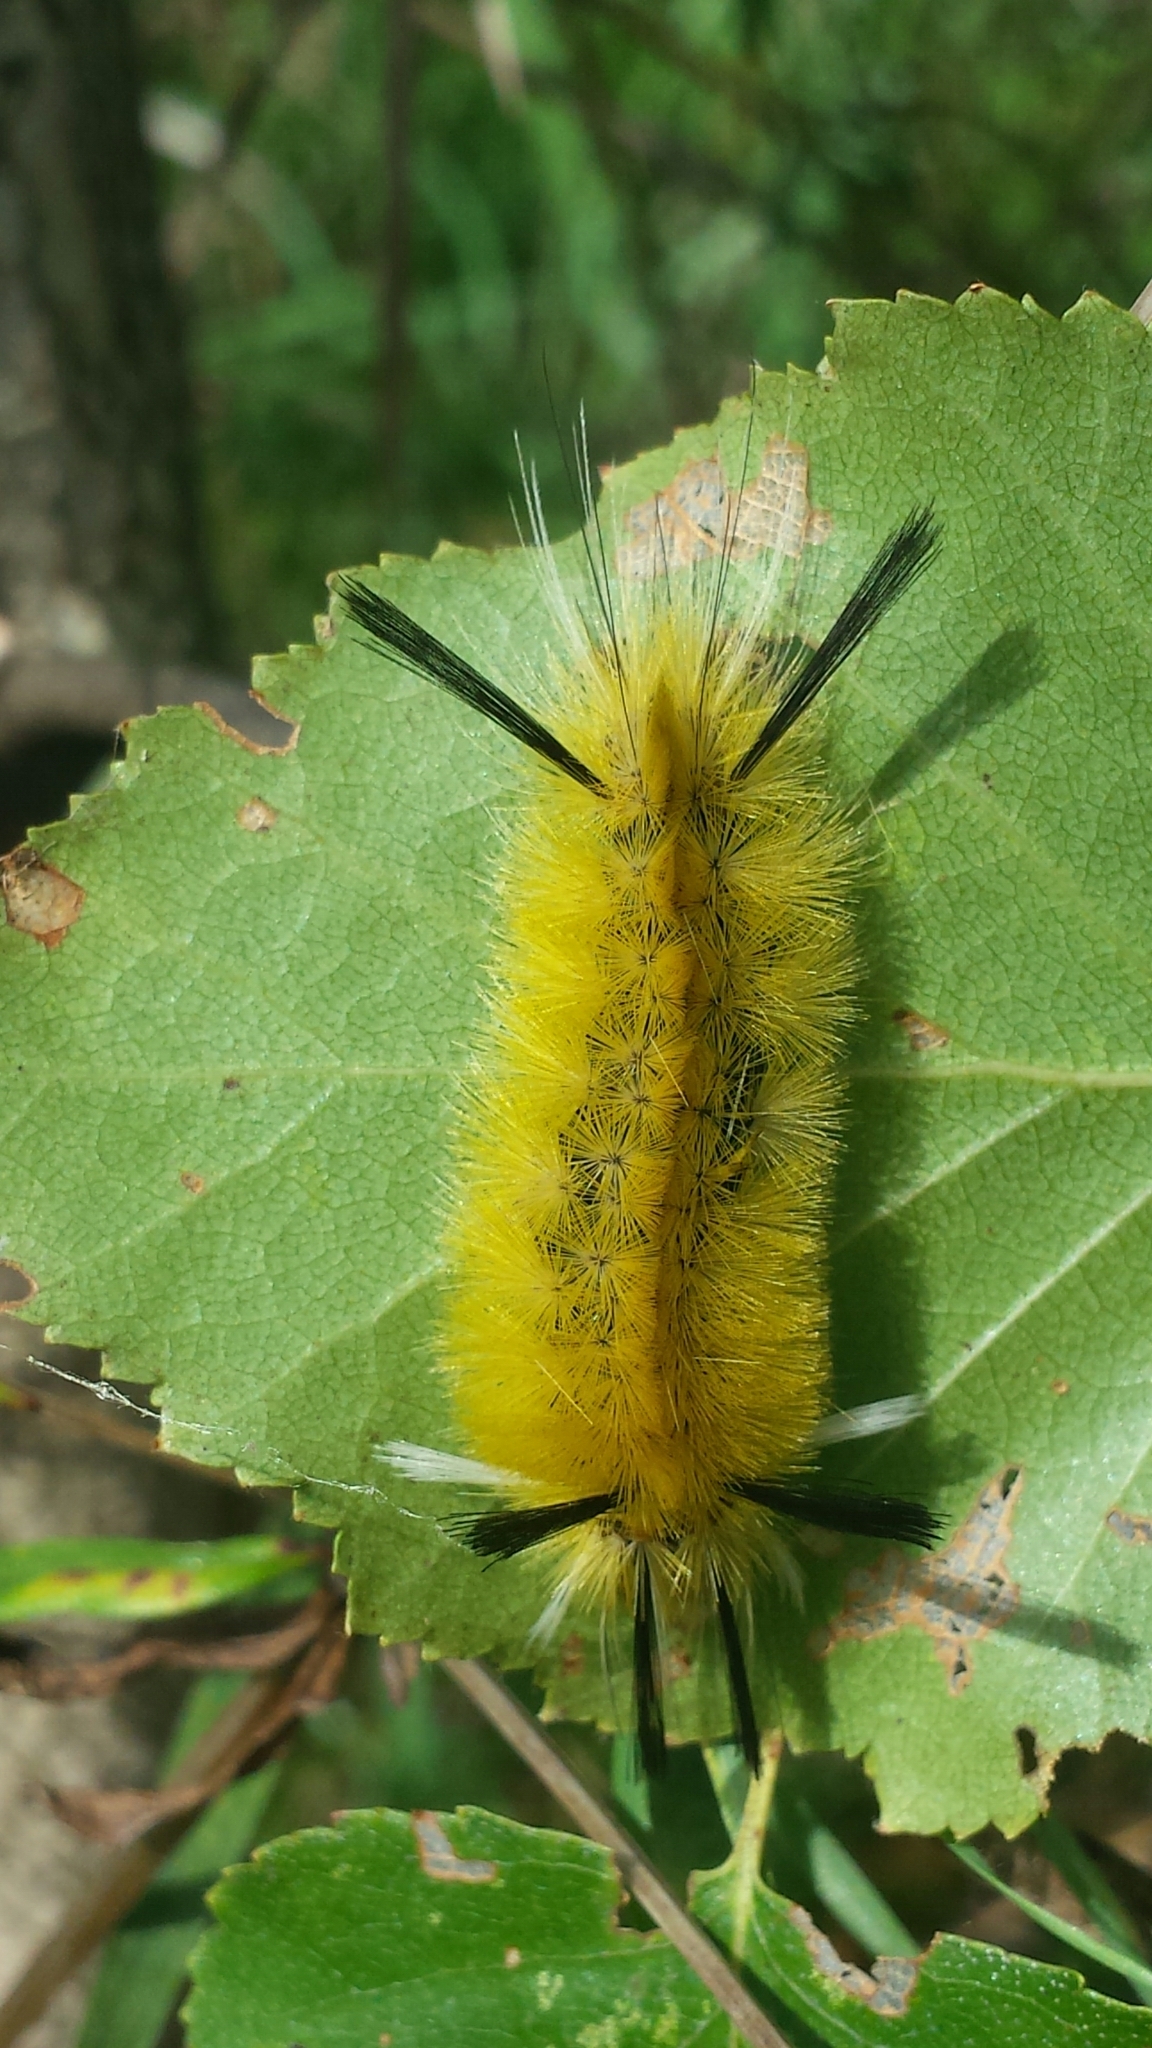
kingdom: Animalia
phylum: Arthropoda
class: Insecta
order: Lepidoptera
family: Erebidae
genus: Halysidota
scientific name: Halysidota tessellaris
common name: Banded tussock moth
